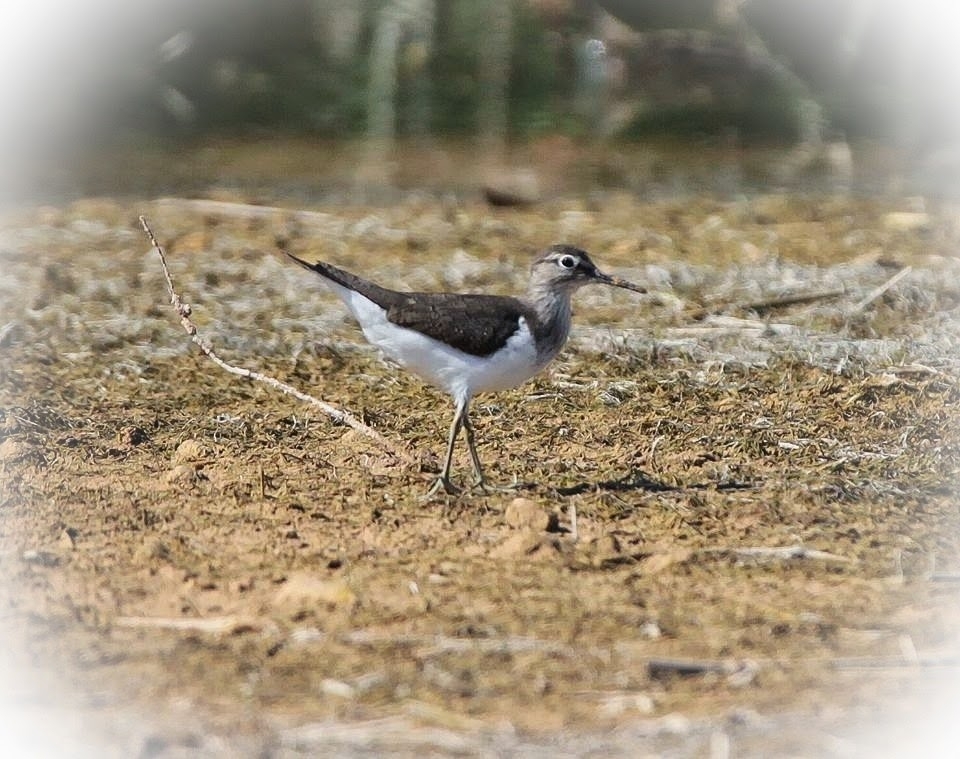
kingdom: Animalia
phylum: Chordata
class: Aves
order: Charadriiformes
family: Scolopacidae
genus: Actitis
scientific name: Actitis hypoleucos
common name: Common sandpiper
